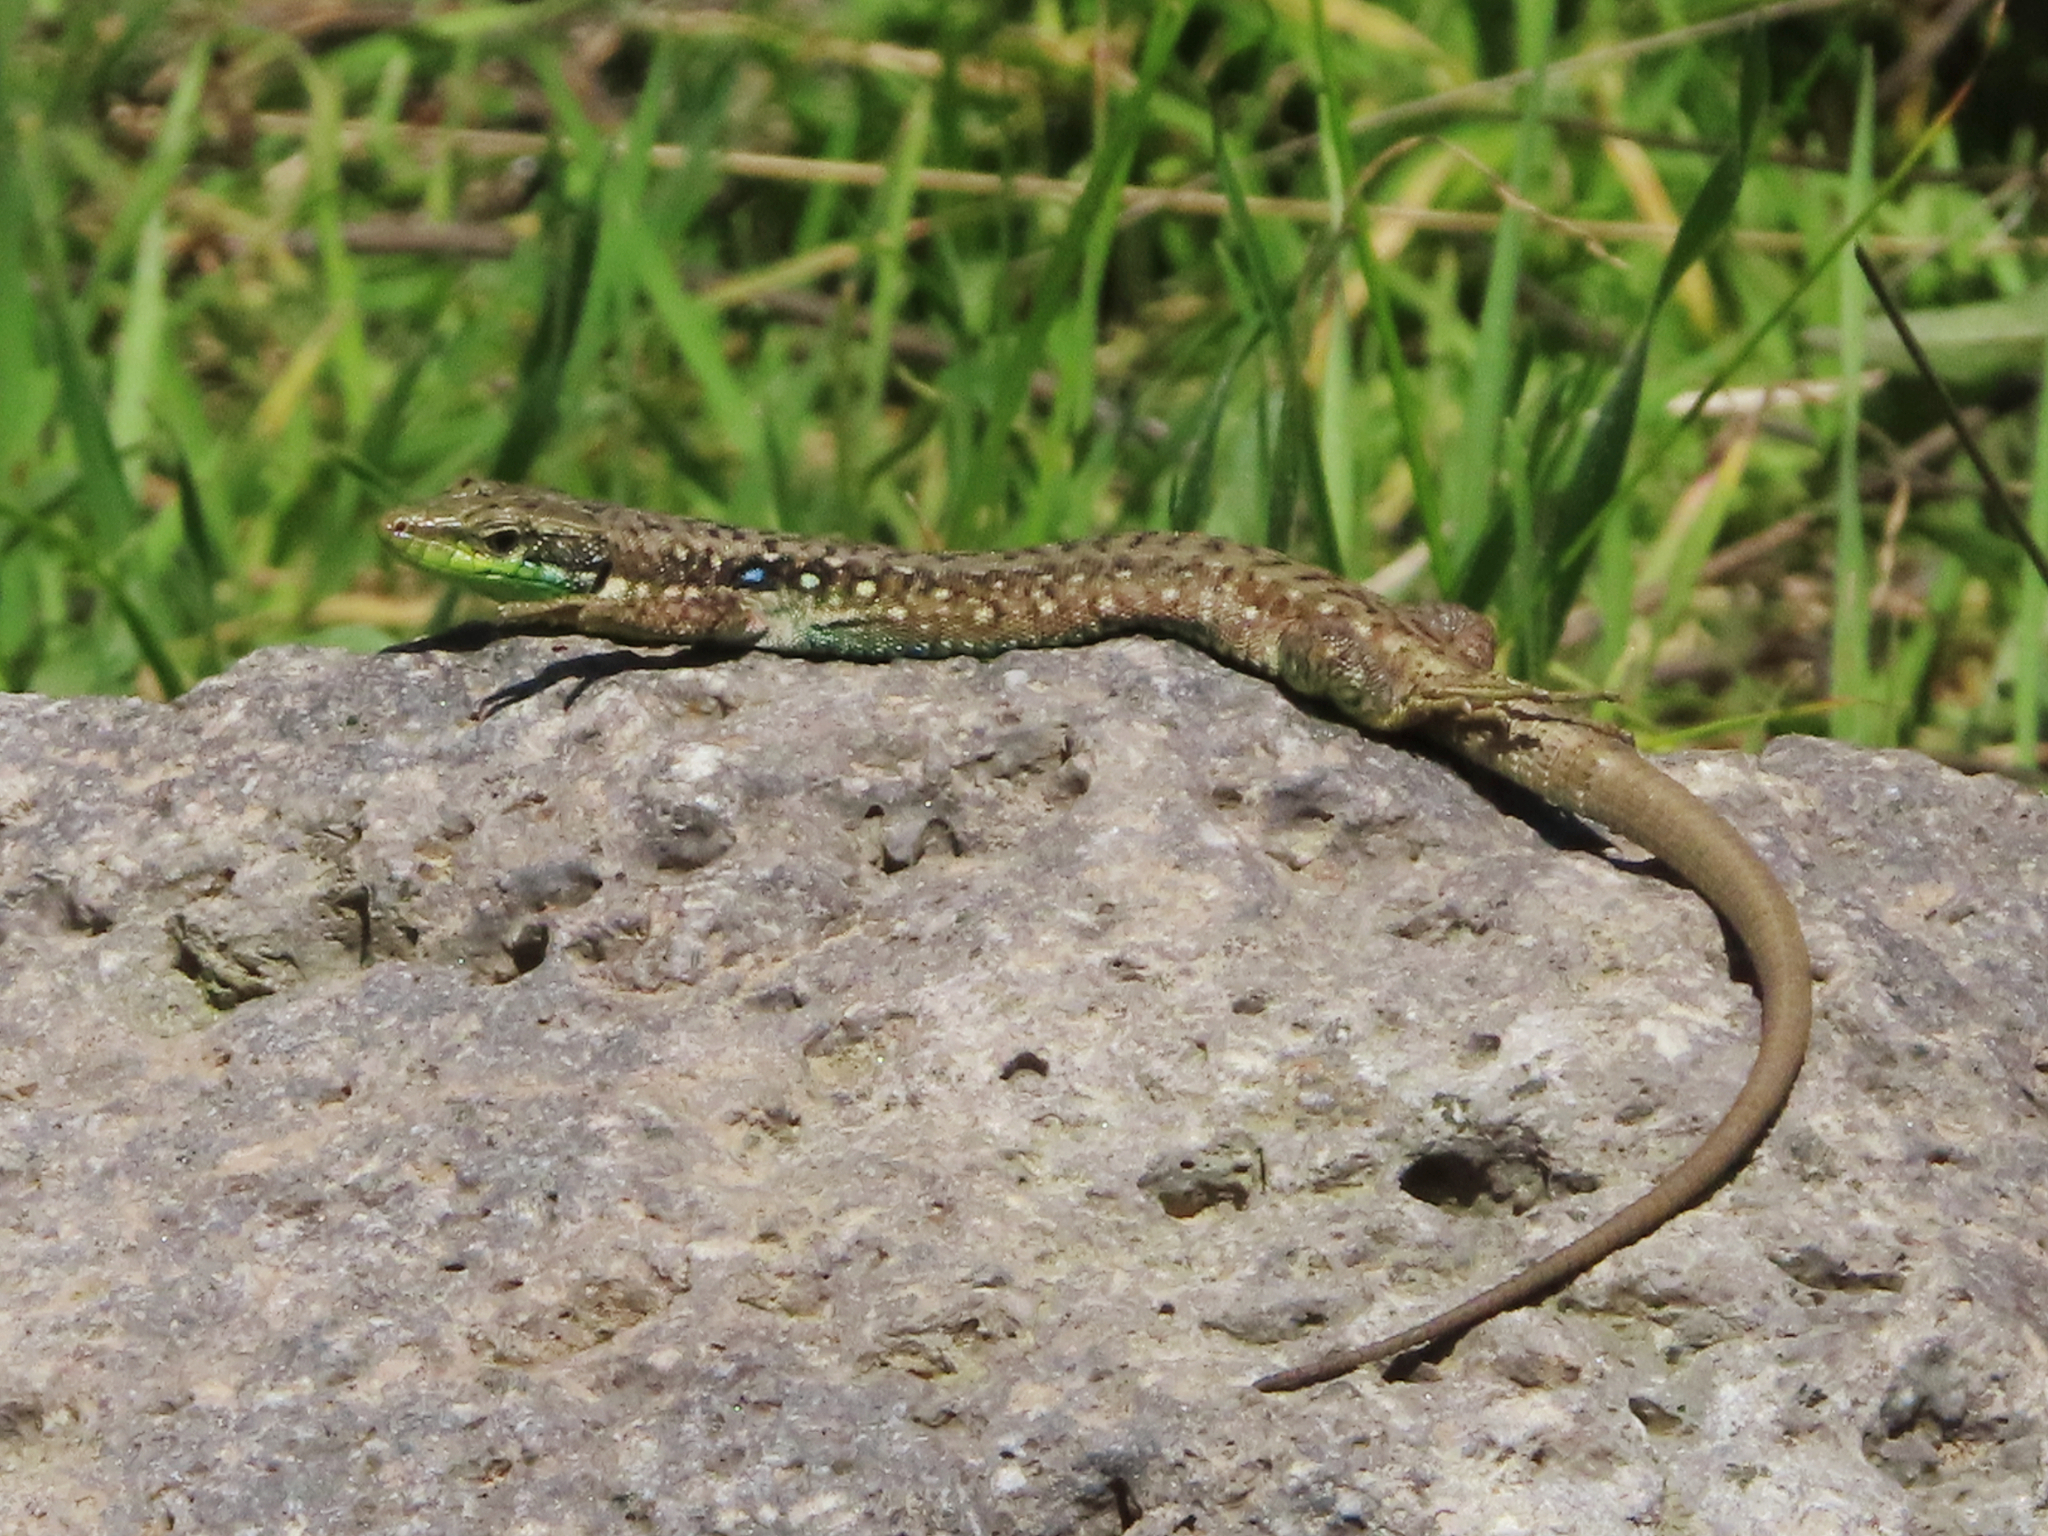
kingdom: Animalia
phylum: Chordata
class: Squamata
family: Lacertidae
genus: Darevskia
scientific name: Darevskia raddei
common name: Radde's lizard
